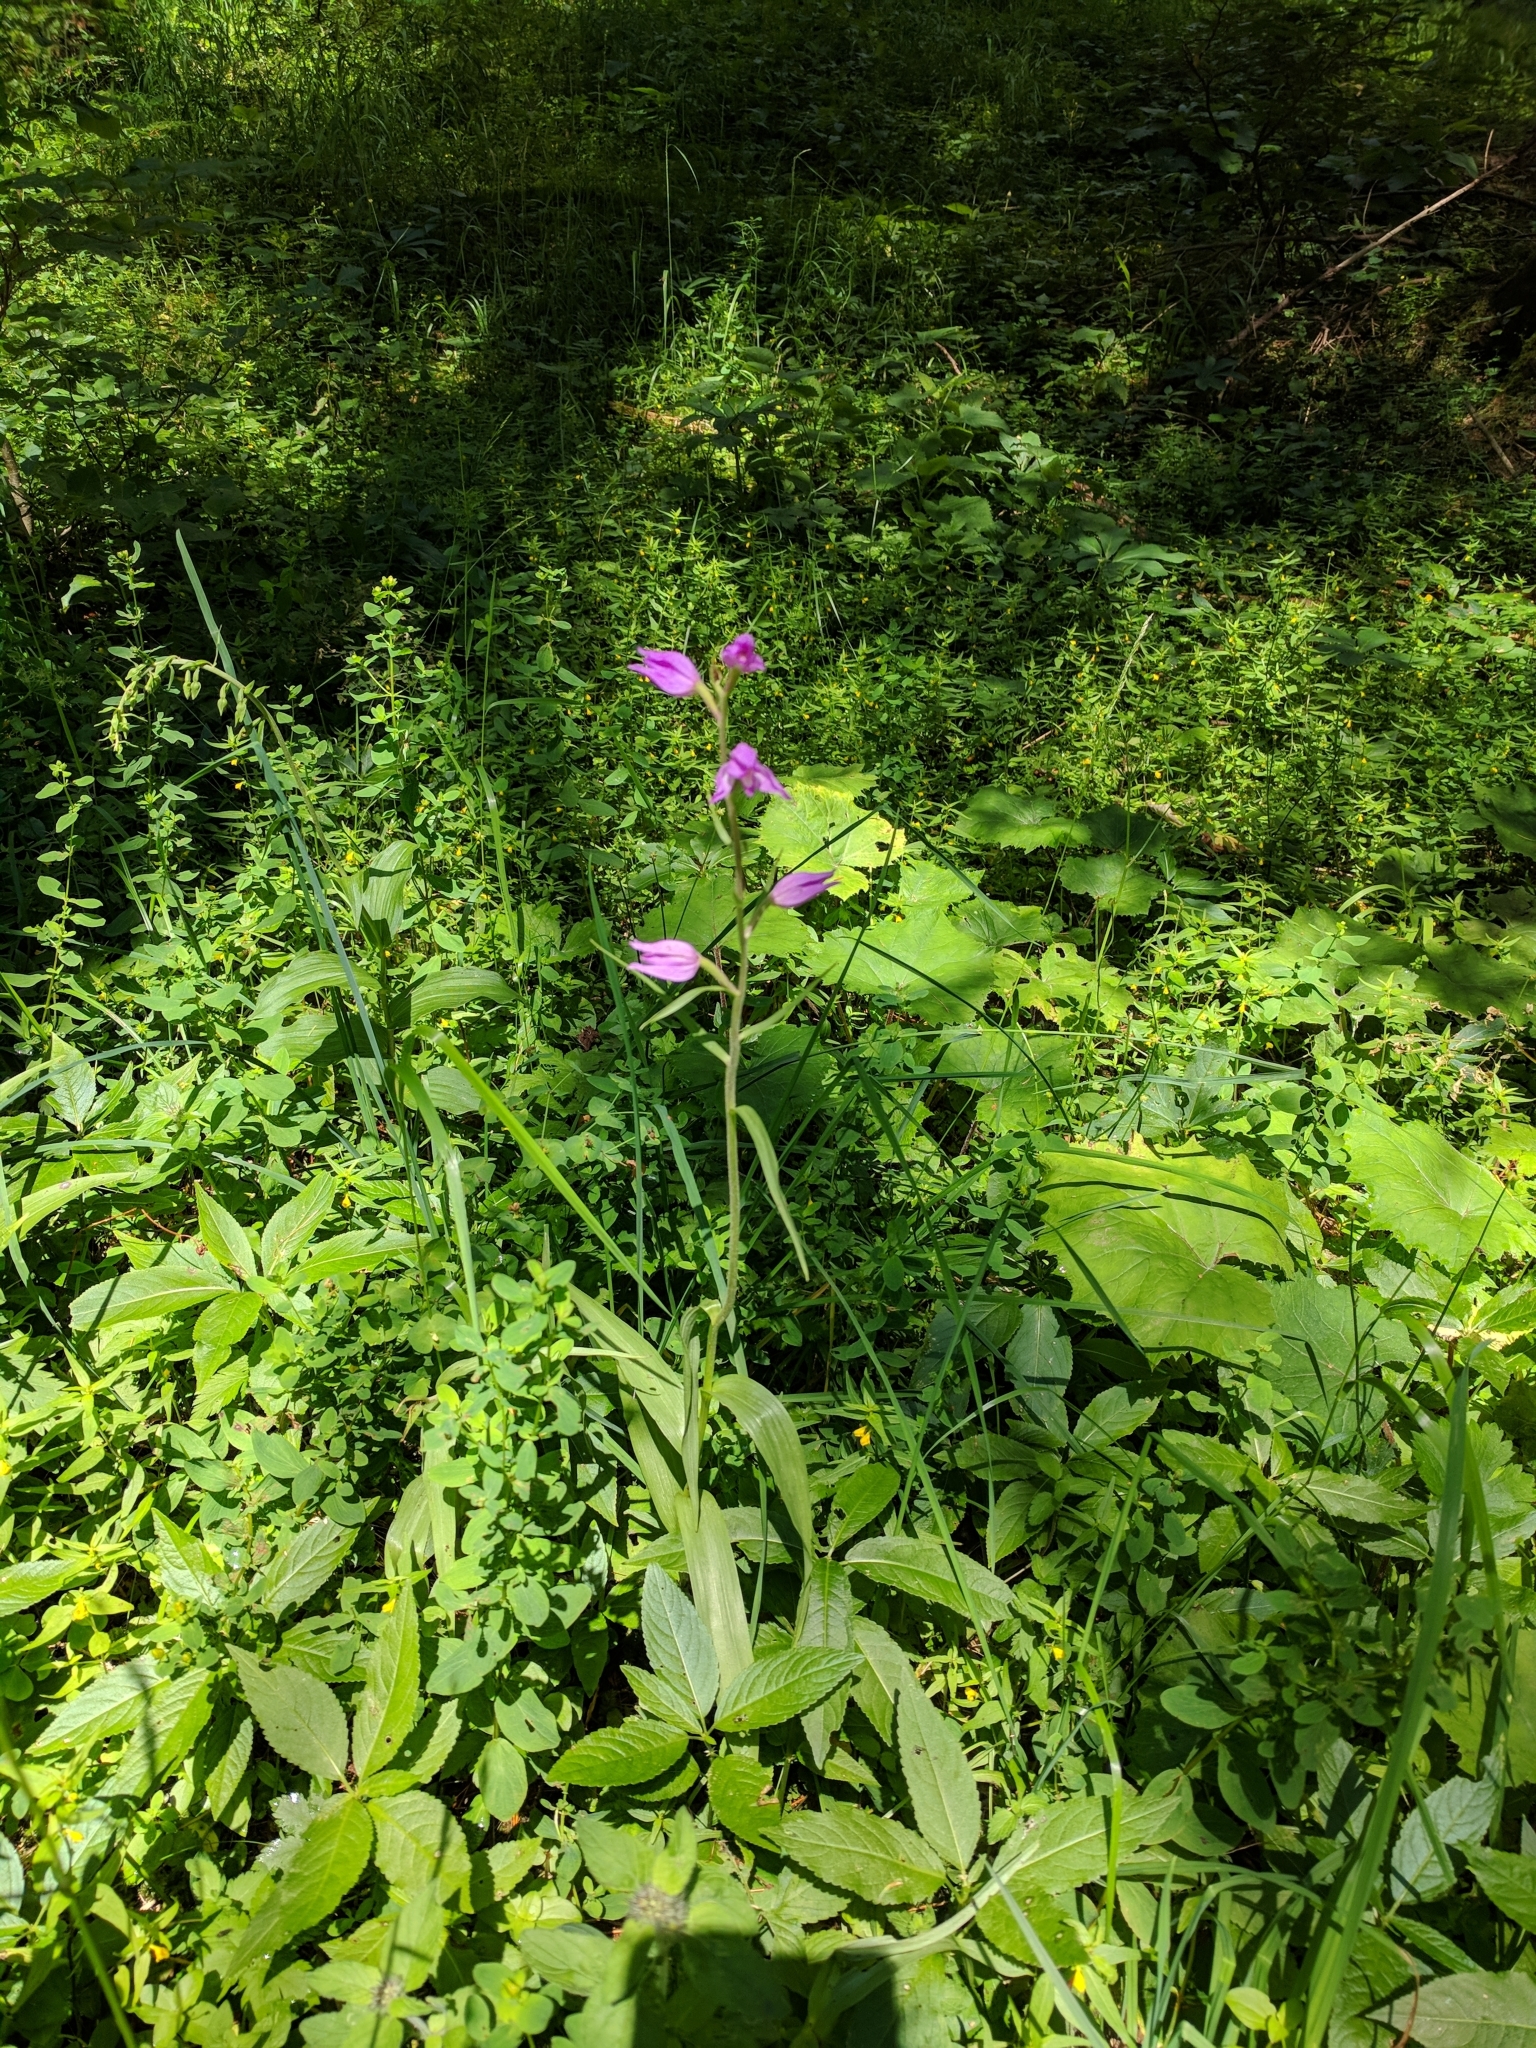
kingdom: Plantae
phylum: Tracheophyta
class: Liliopsida
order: Asparagales
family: Orchidaceae
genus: Cephalanthera
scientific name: Cephalanthera rubra
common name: Red helleborine
